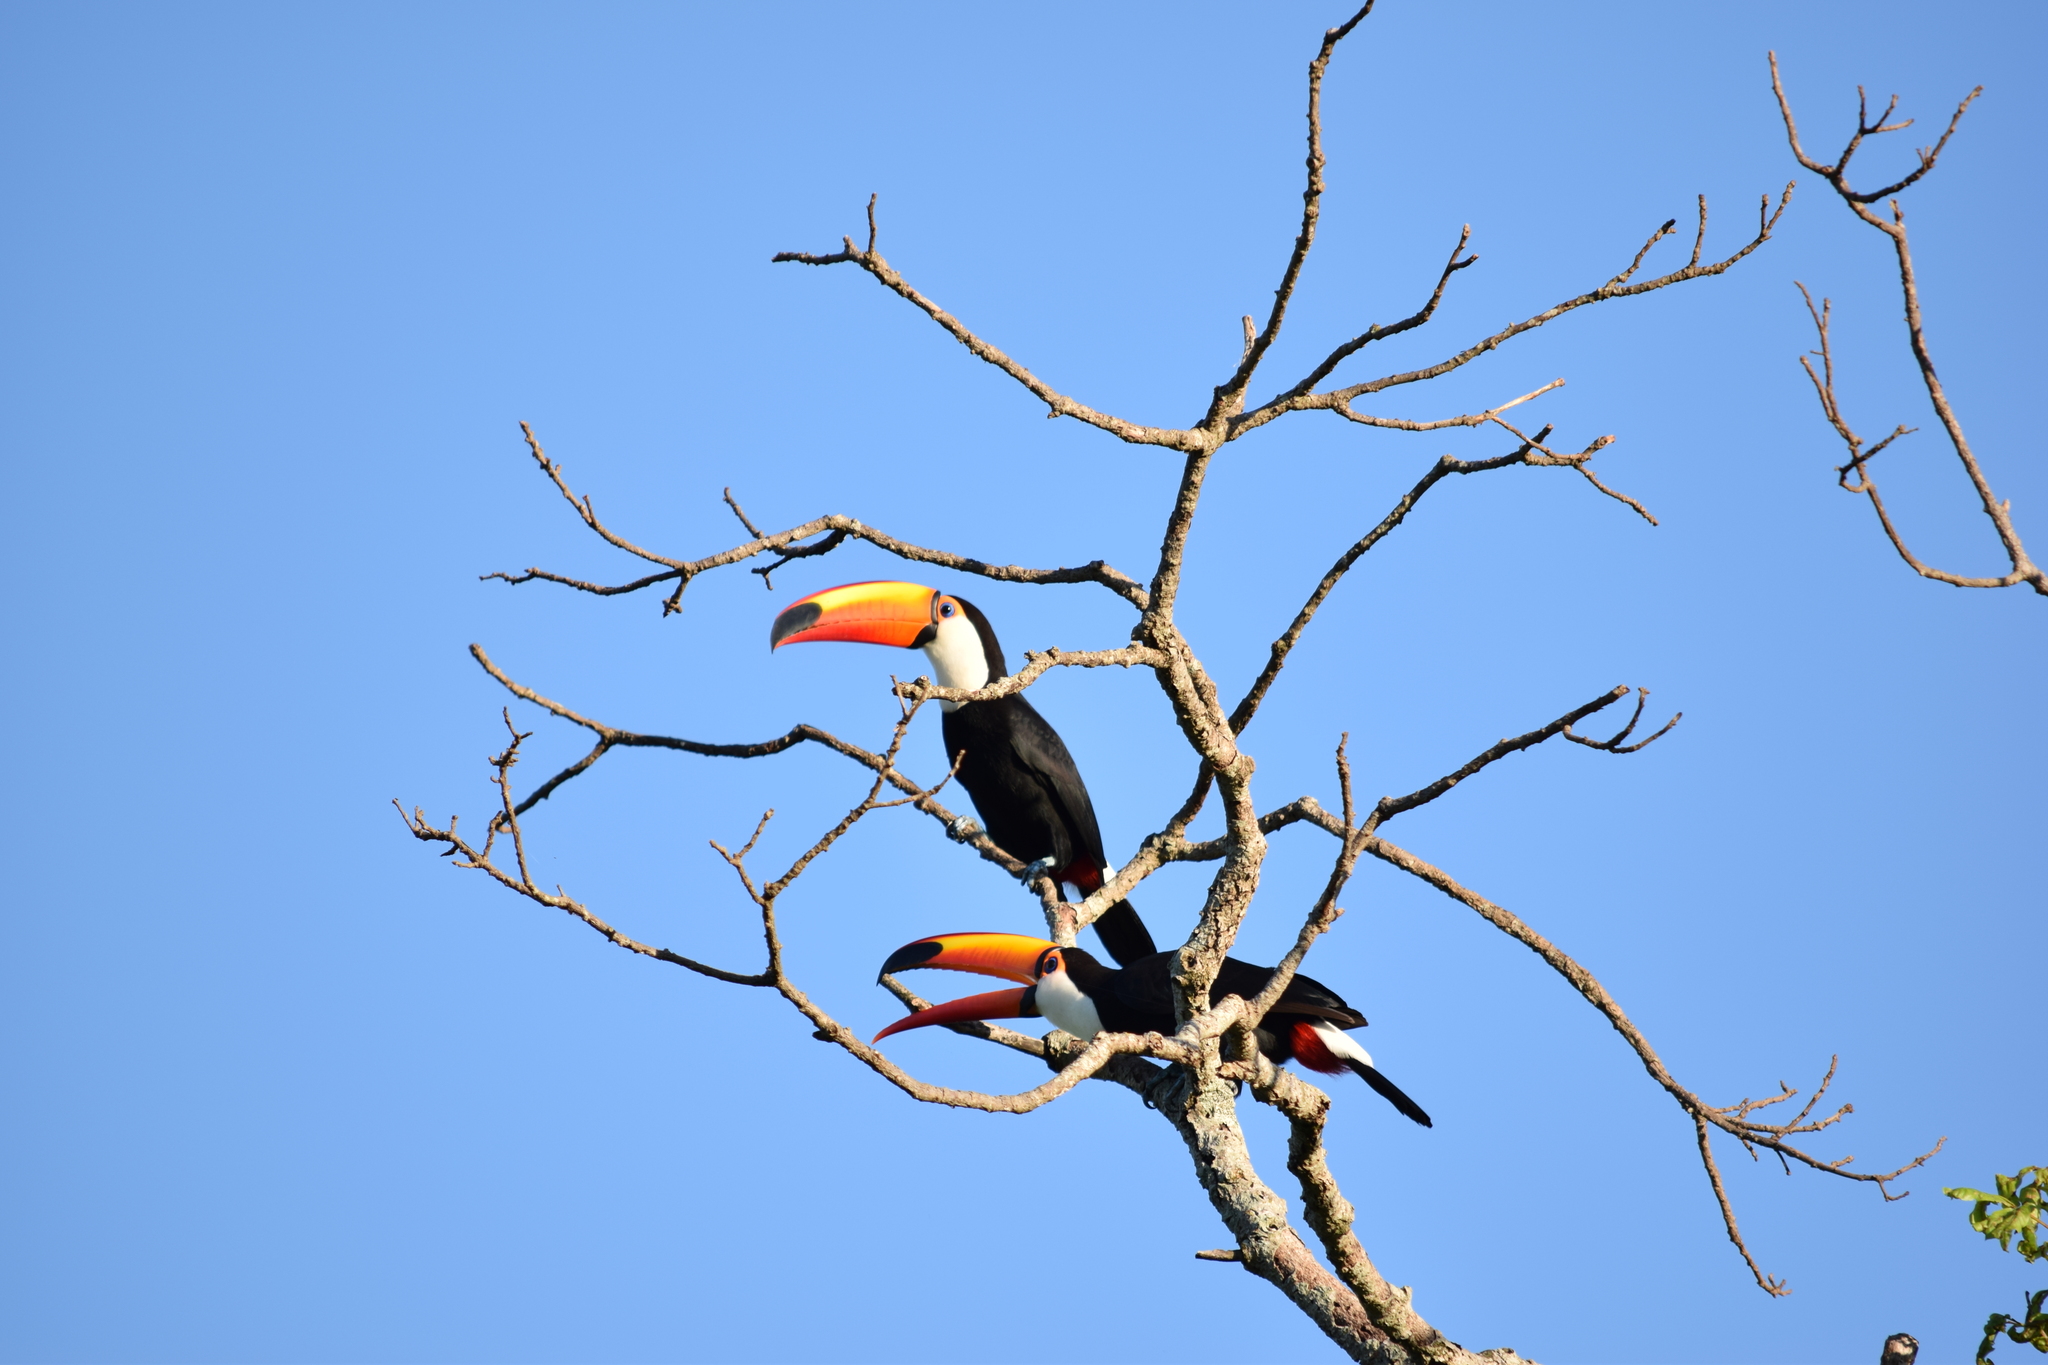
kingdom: Animalia
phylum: Chordata
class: Aves
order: Piciformes
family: Ramphastidae
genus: Ramphastos
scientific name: Ramphastos toco
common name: Toco toucan
